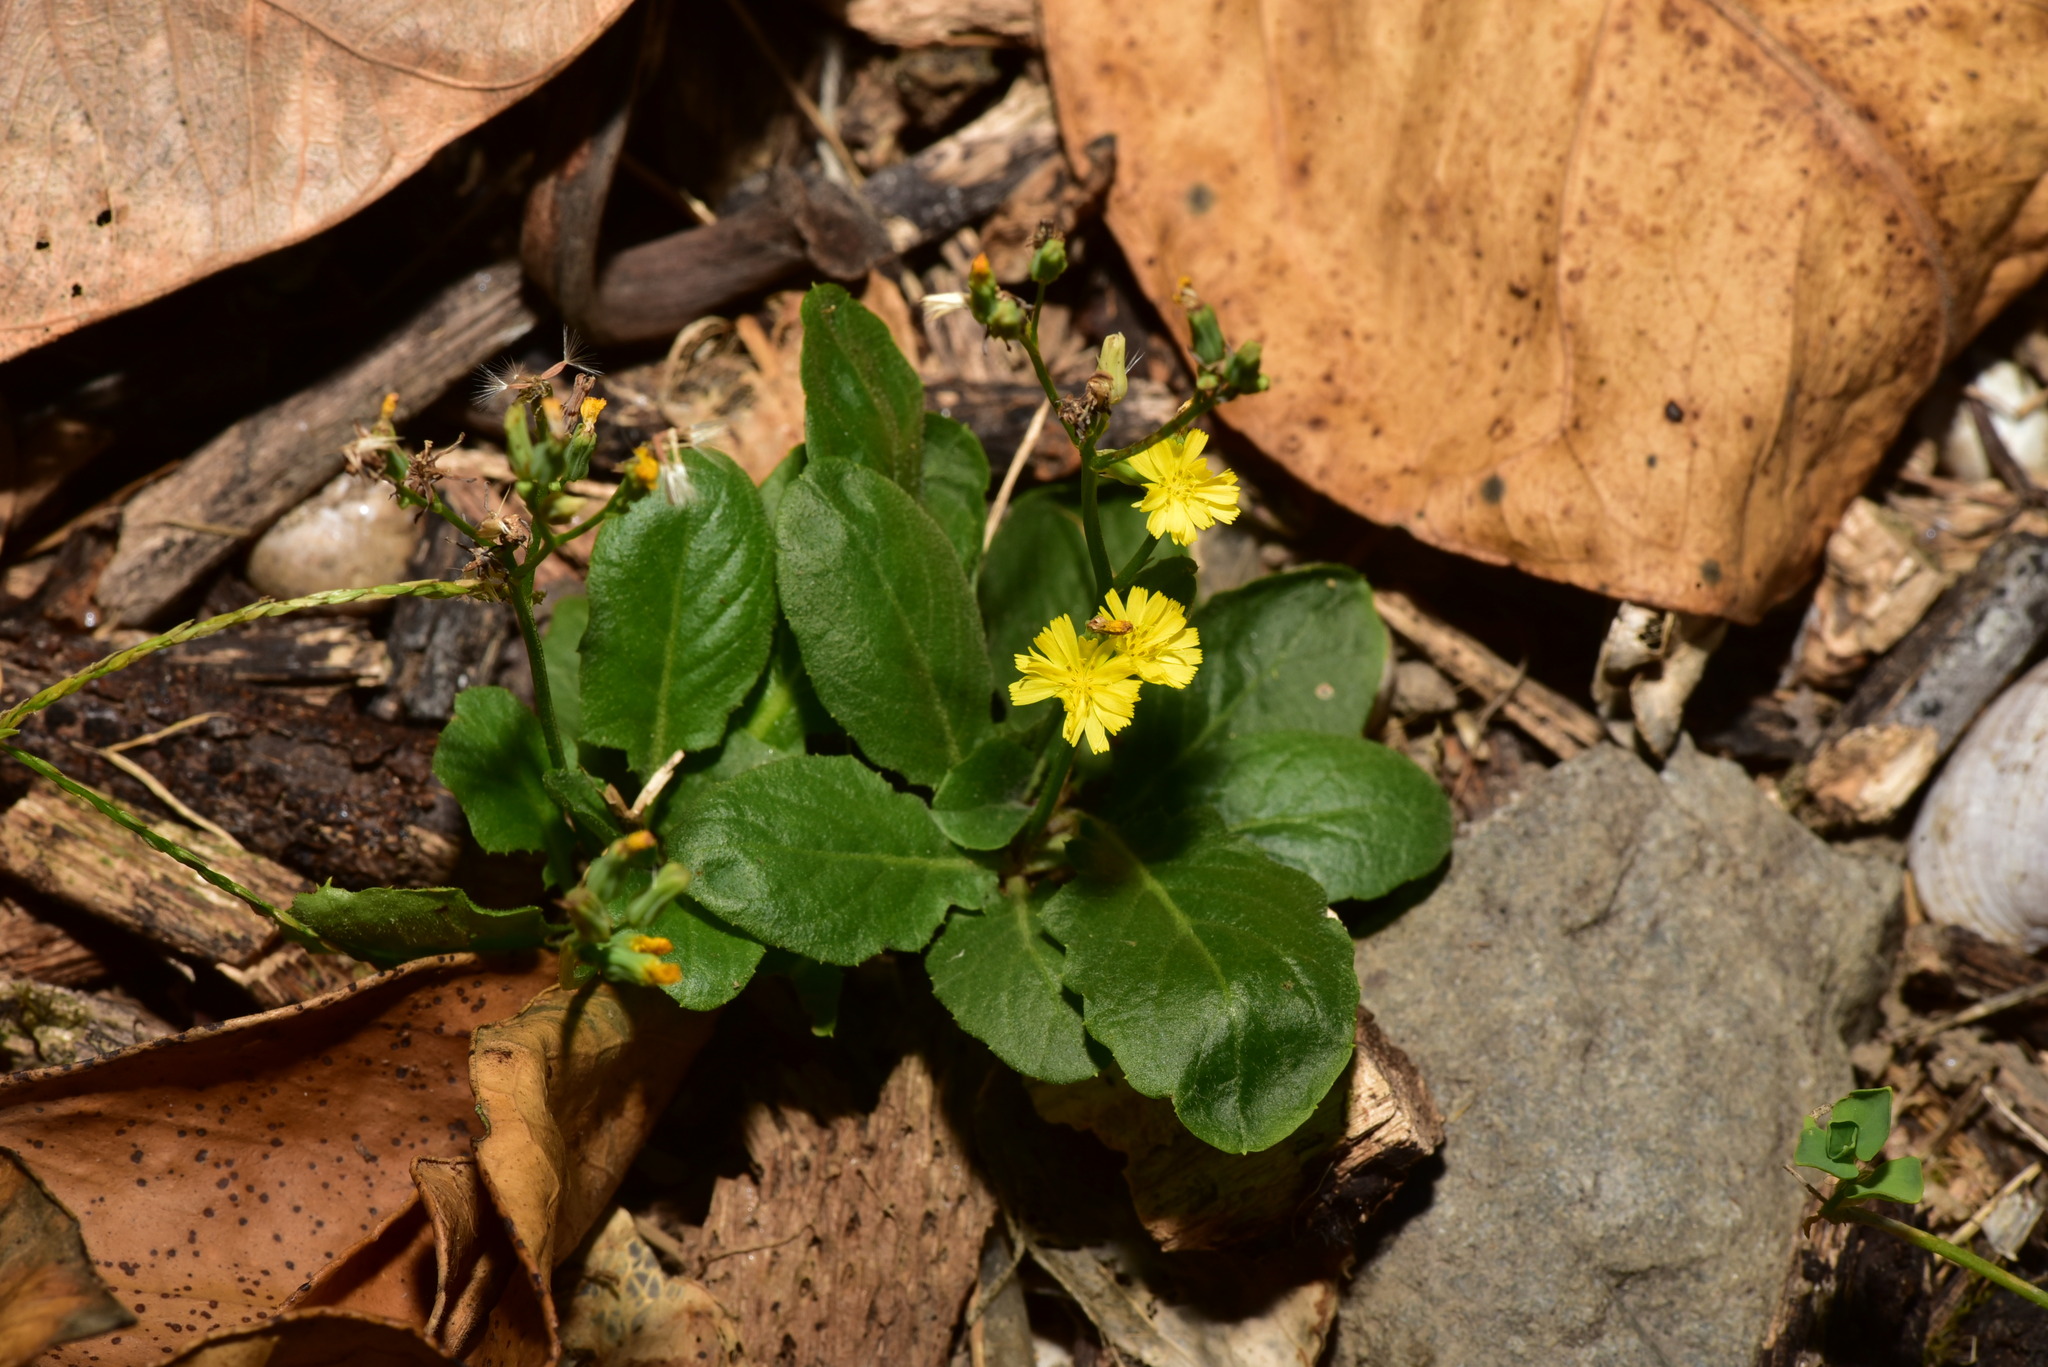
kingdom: Plantae
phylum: Tracheophyta
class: Magnoliopsida
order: Asterales
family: Asteraceae
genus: Youngia
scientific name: Youngia japonica
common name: Oriental false hawksbeard
